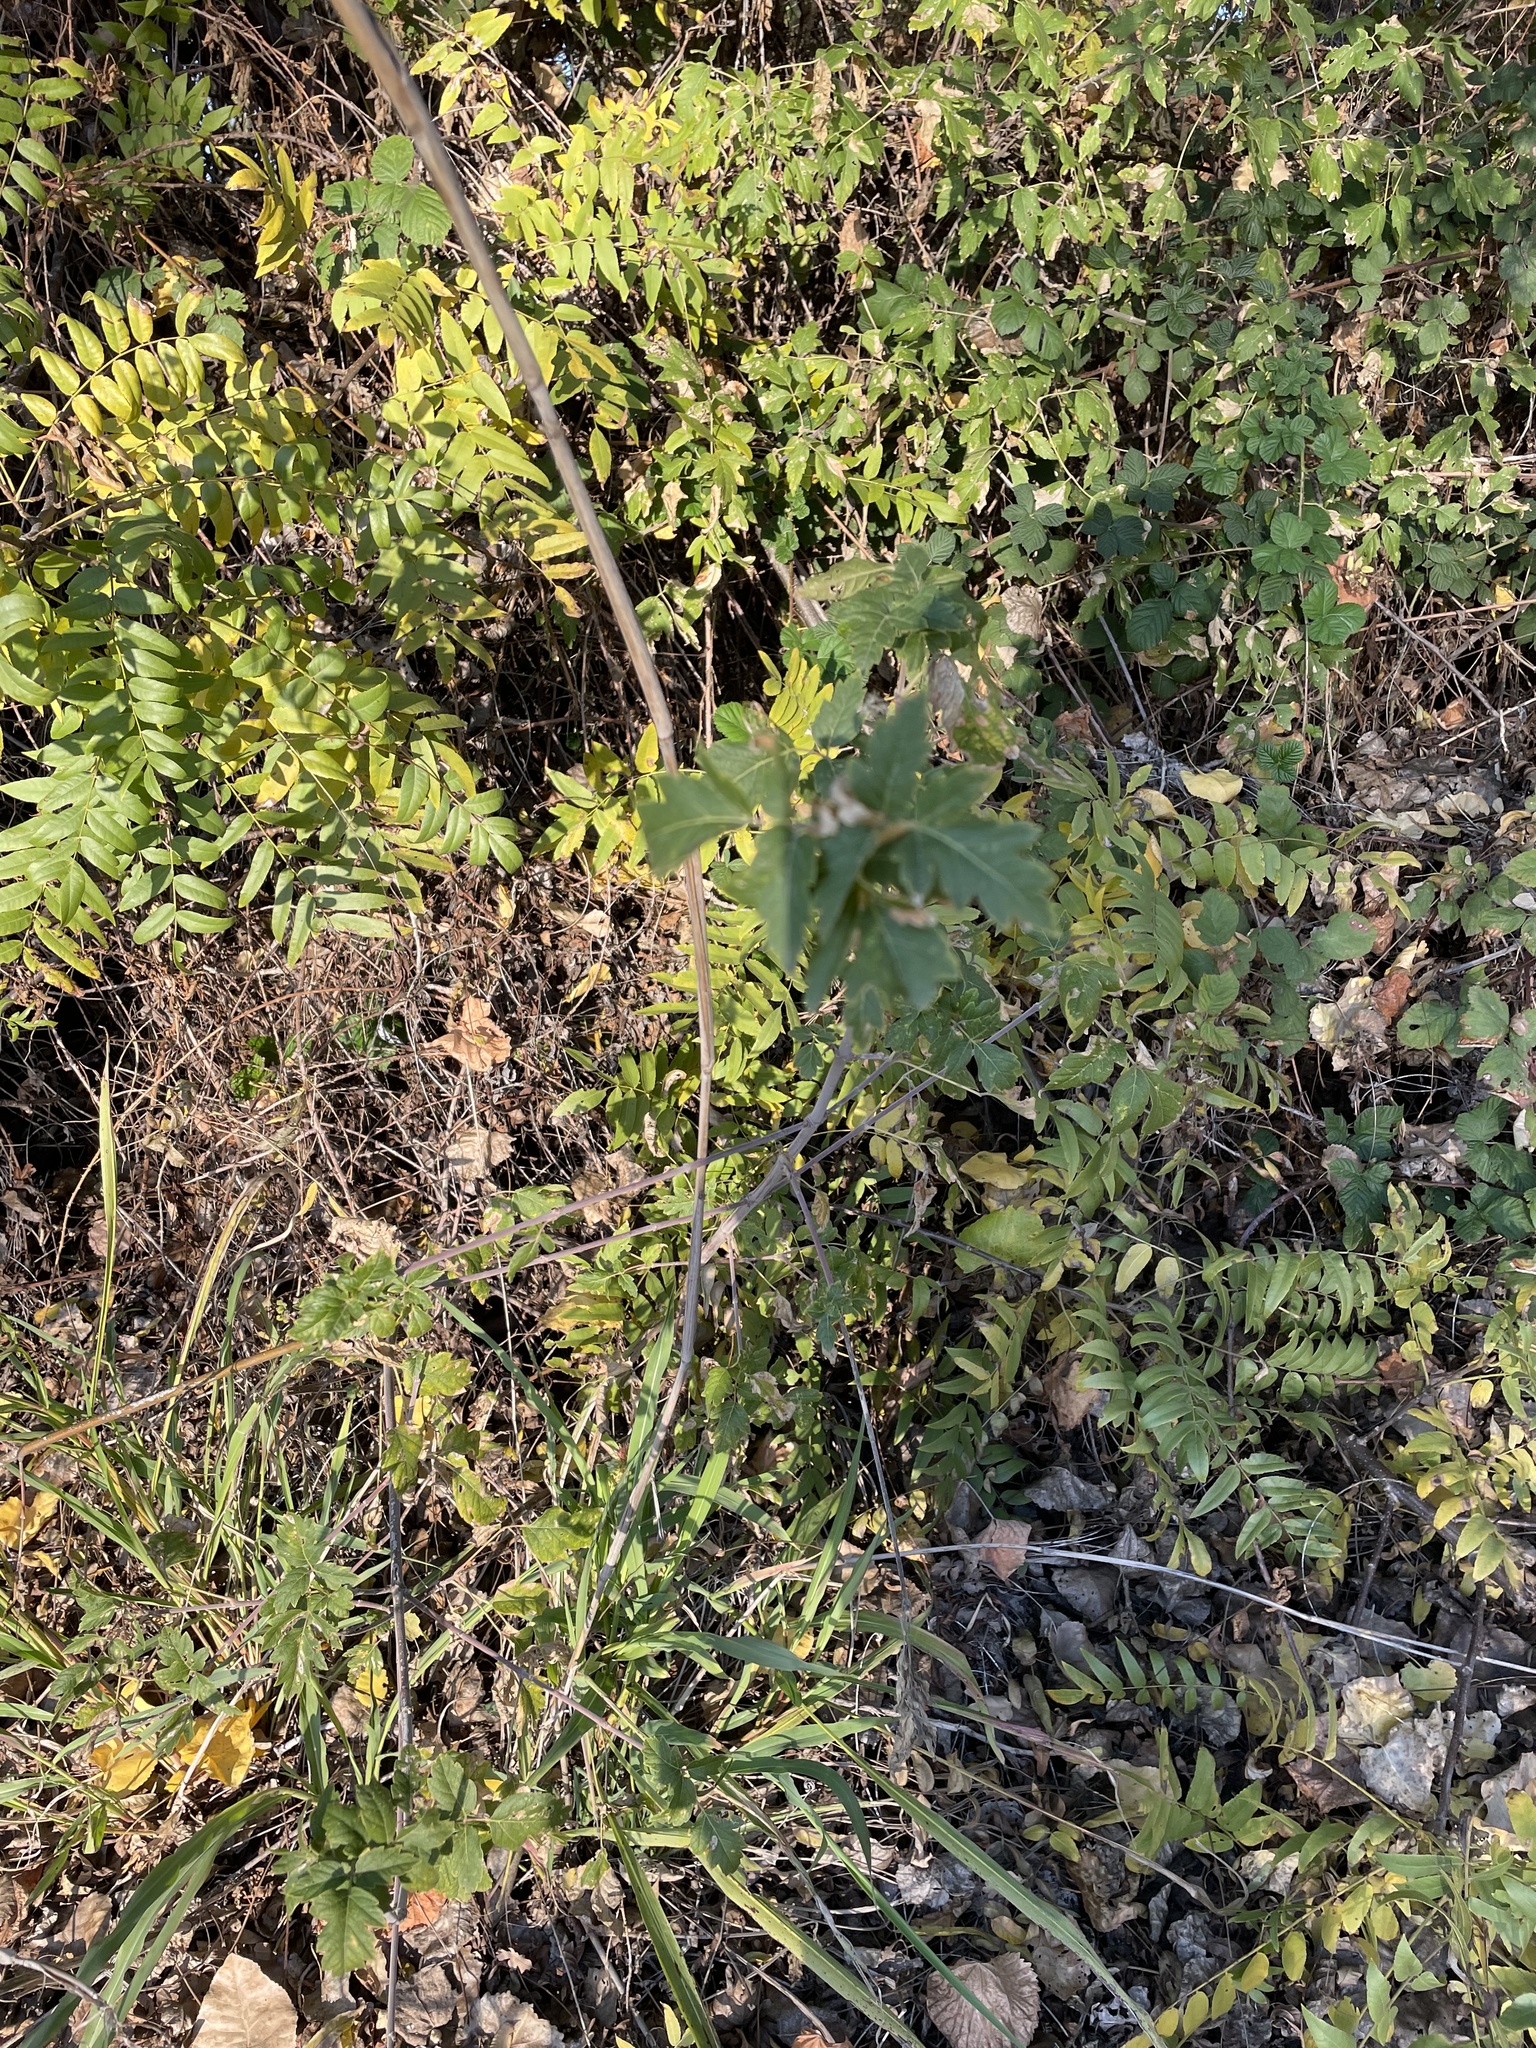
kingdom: Plantae
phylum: Tracheophyta
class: Magnoliopsida
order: Sapindales
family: Sapindaceae
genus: Acer
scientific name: Acer negundo
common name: Ashleaf maple
